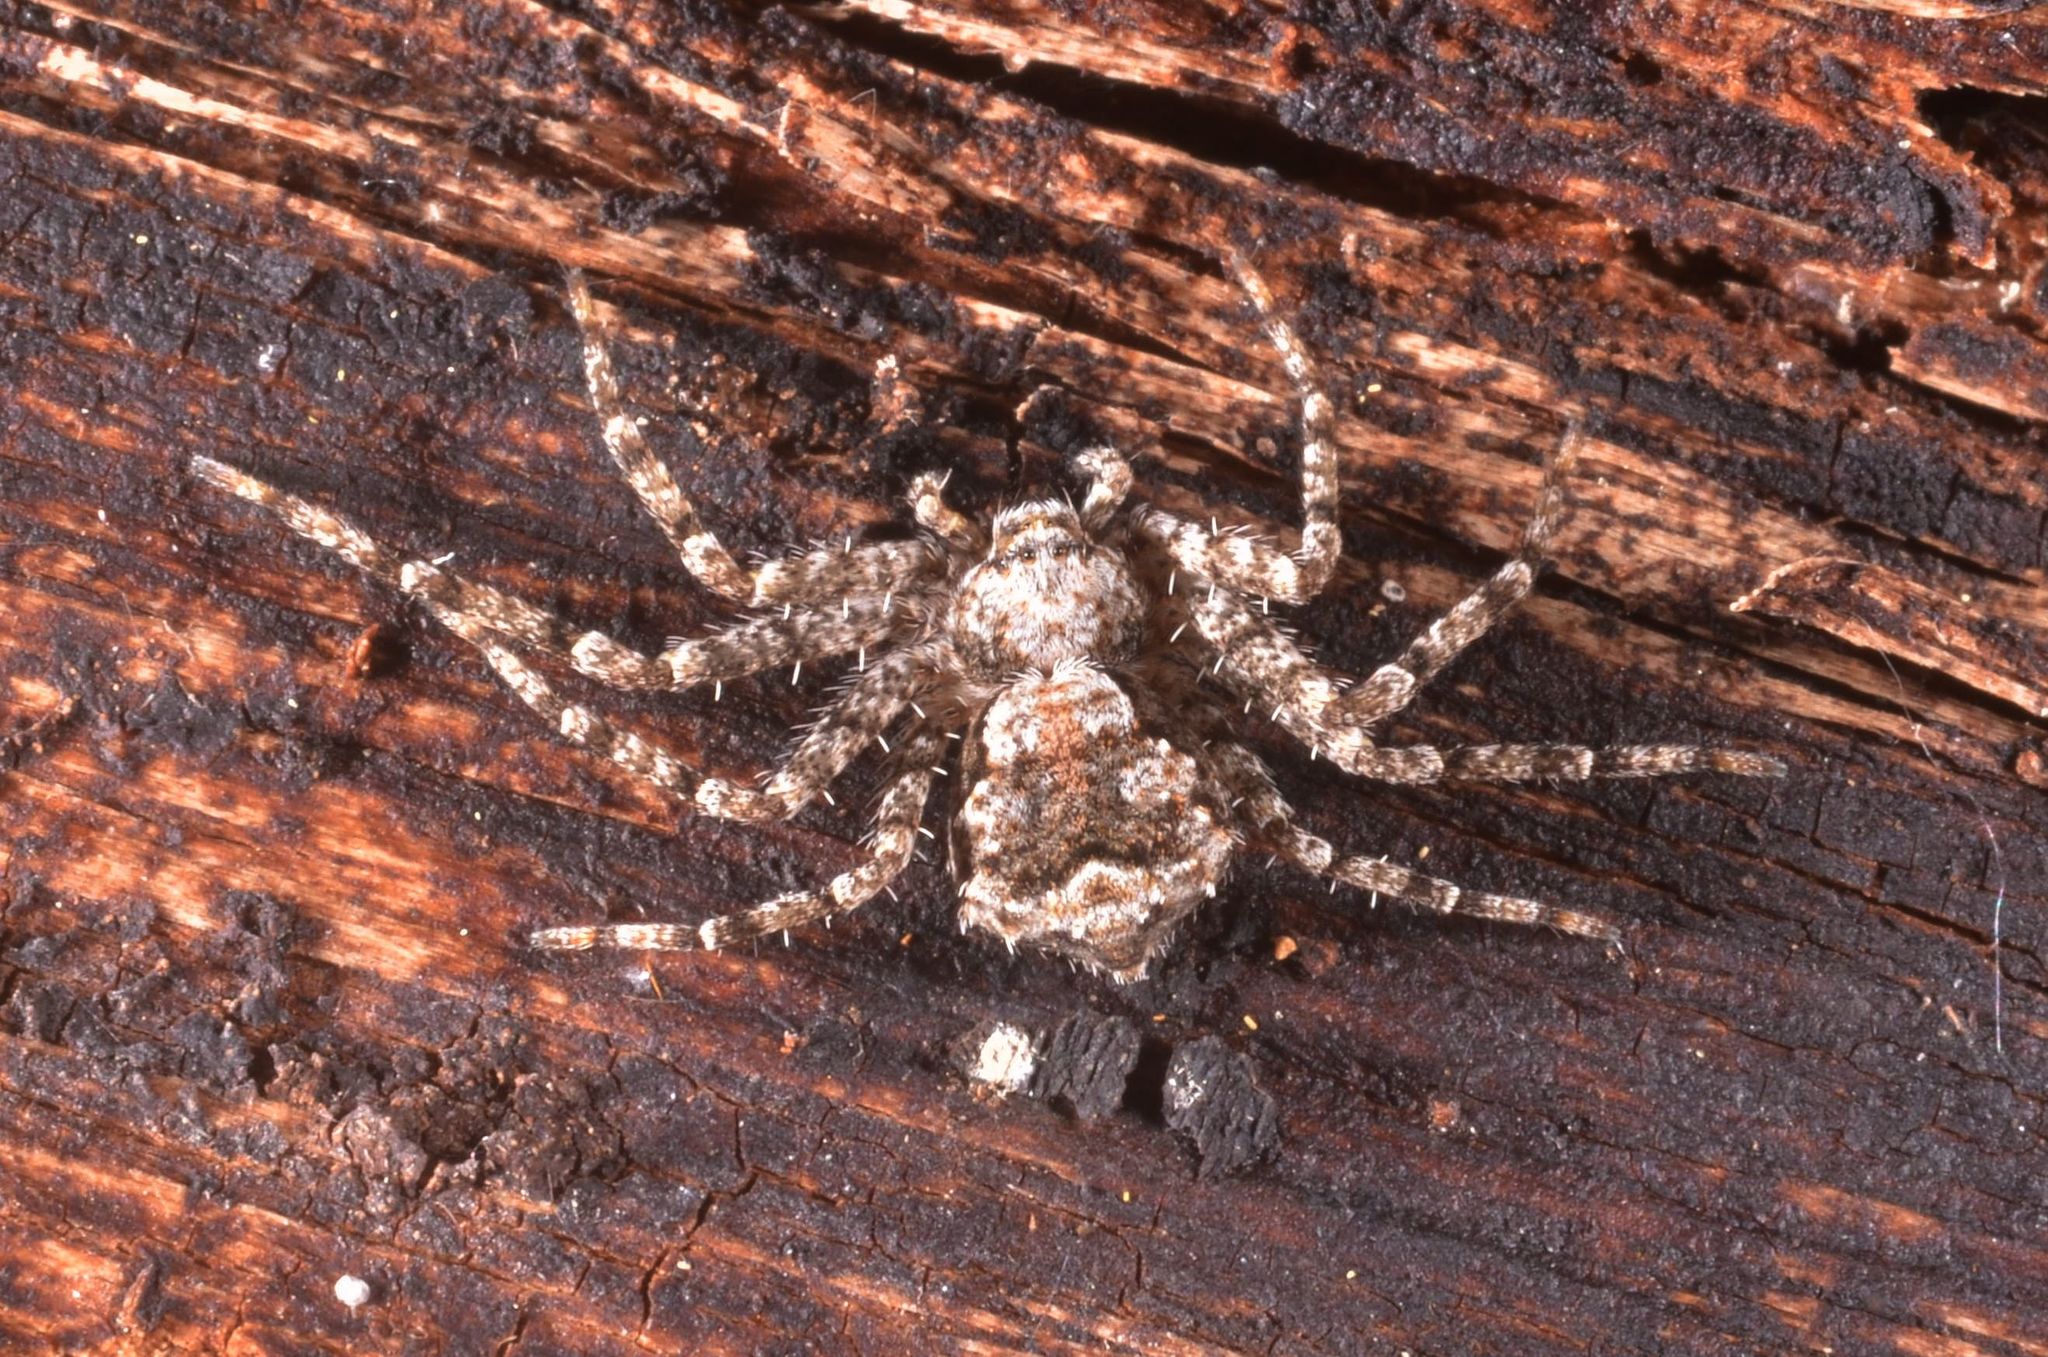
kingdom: Animalia
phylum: Arthropoda
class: Arachnida
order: Araneae
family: Philodromidae
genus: Philodromus
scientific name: Philodromus poecilus
